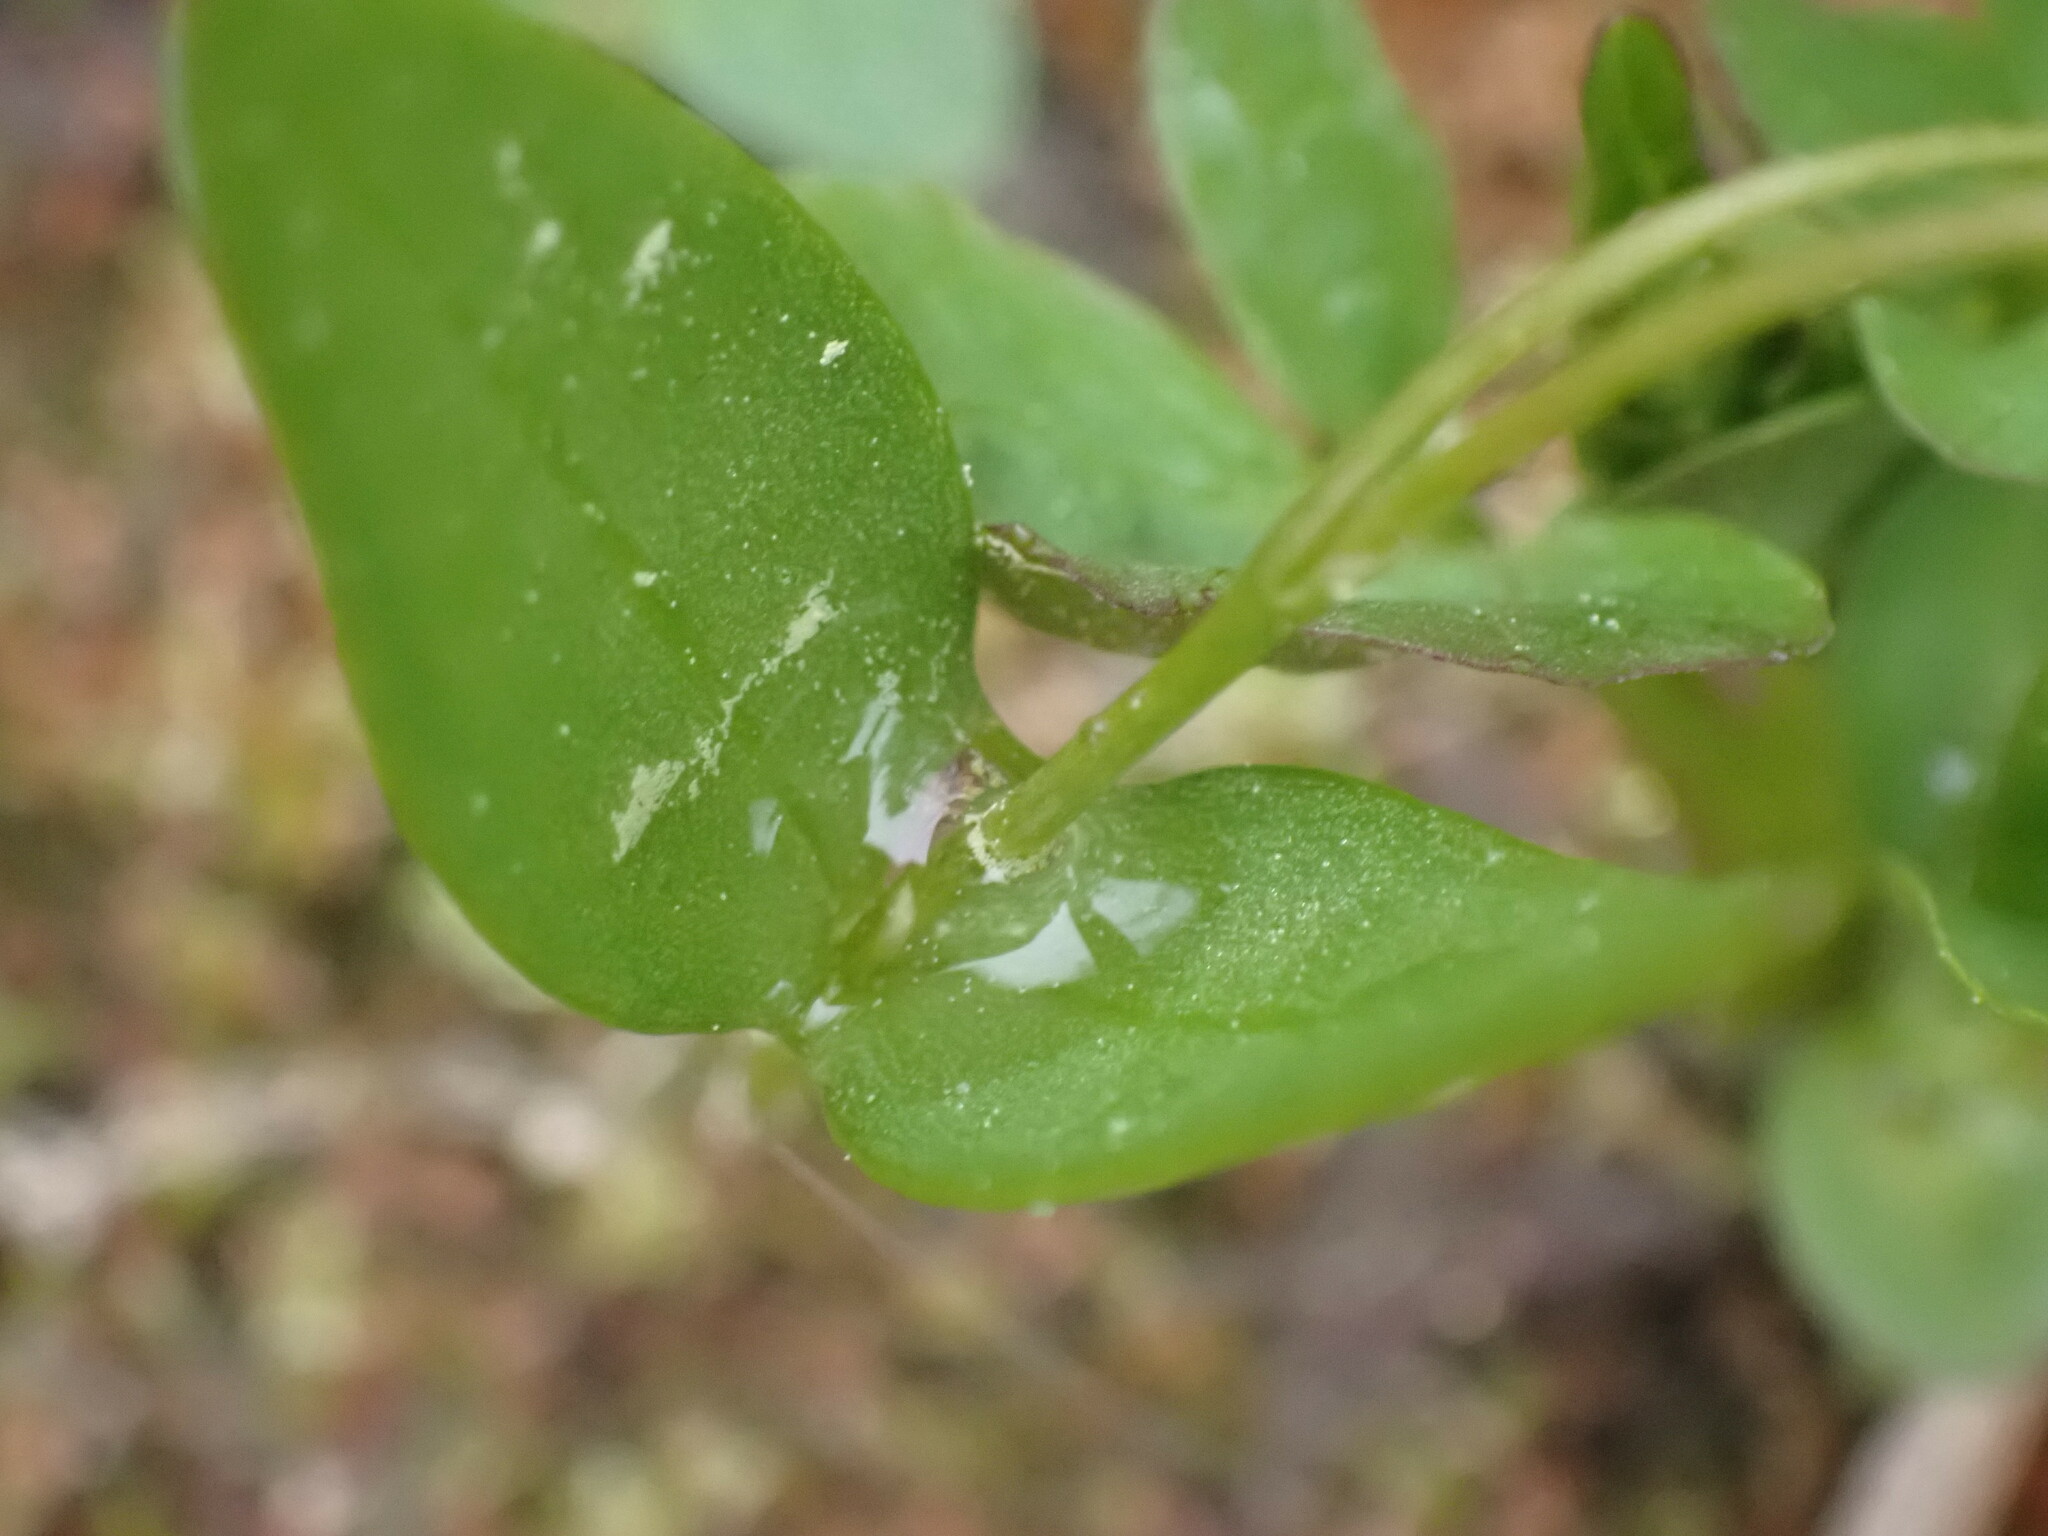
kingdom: Plantae
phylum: Tracheophyta
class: Magnoliopsida
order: Caryophyllales
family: Montiaceae
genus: Claytonia
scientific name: Claytonia lanceolata
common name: Western spring-beauty
